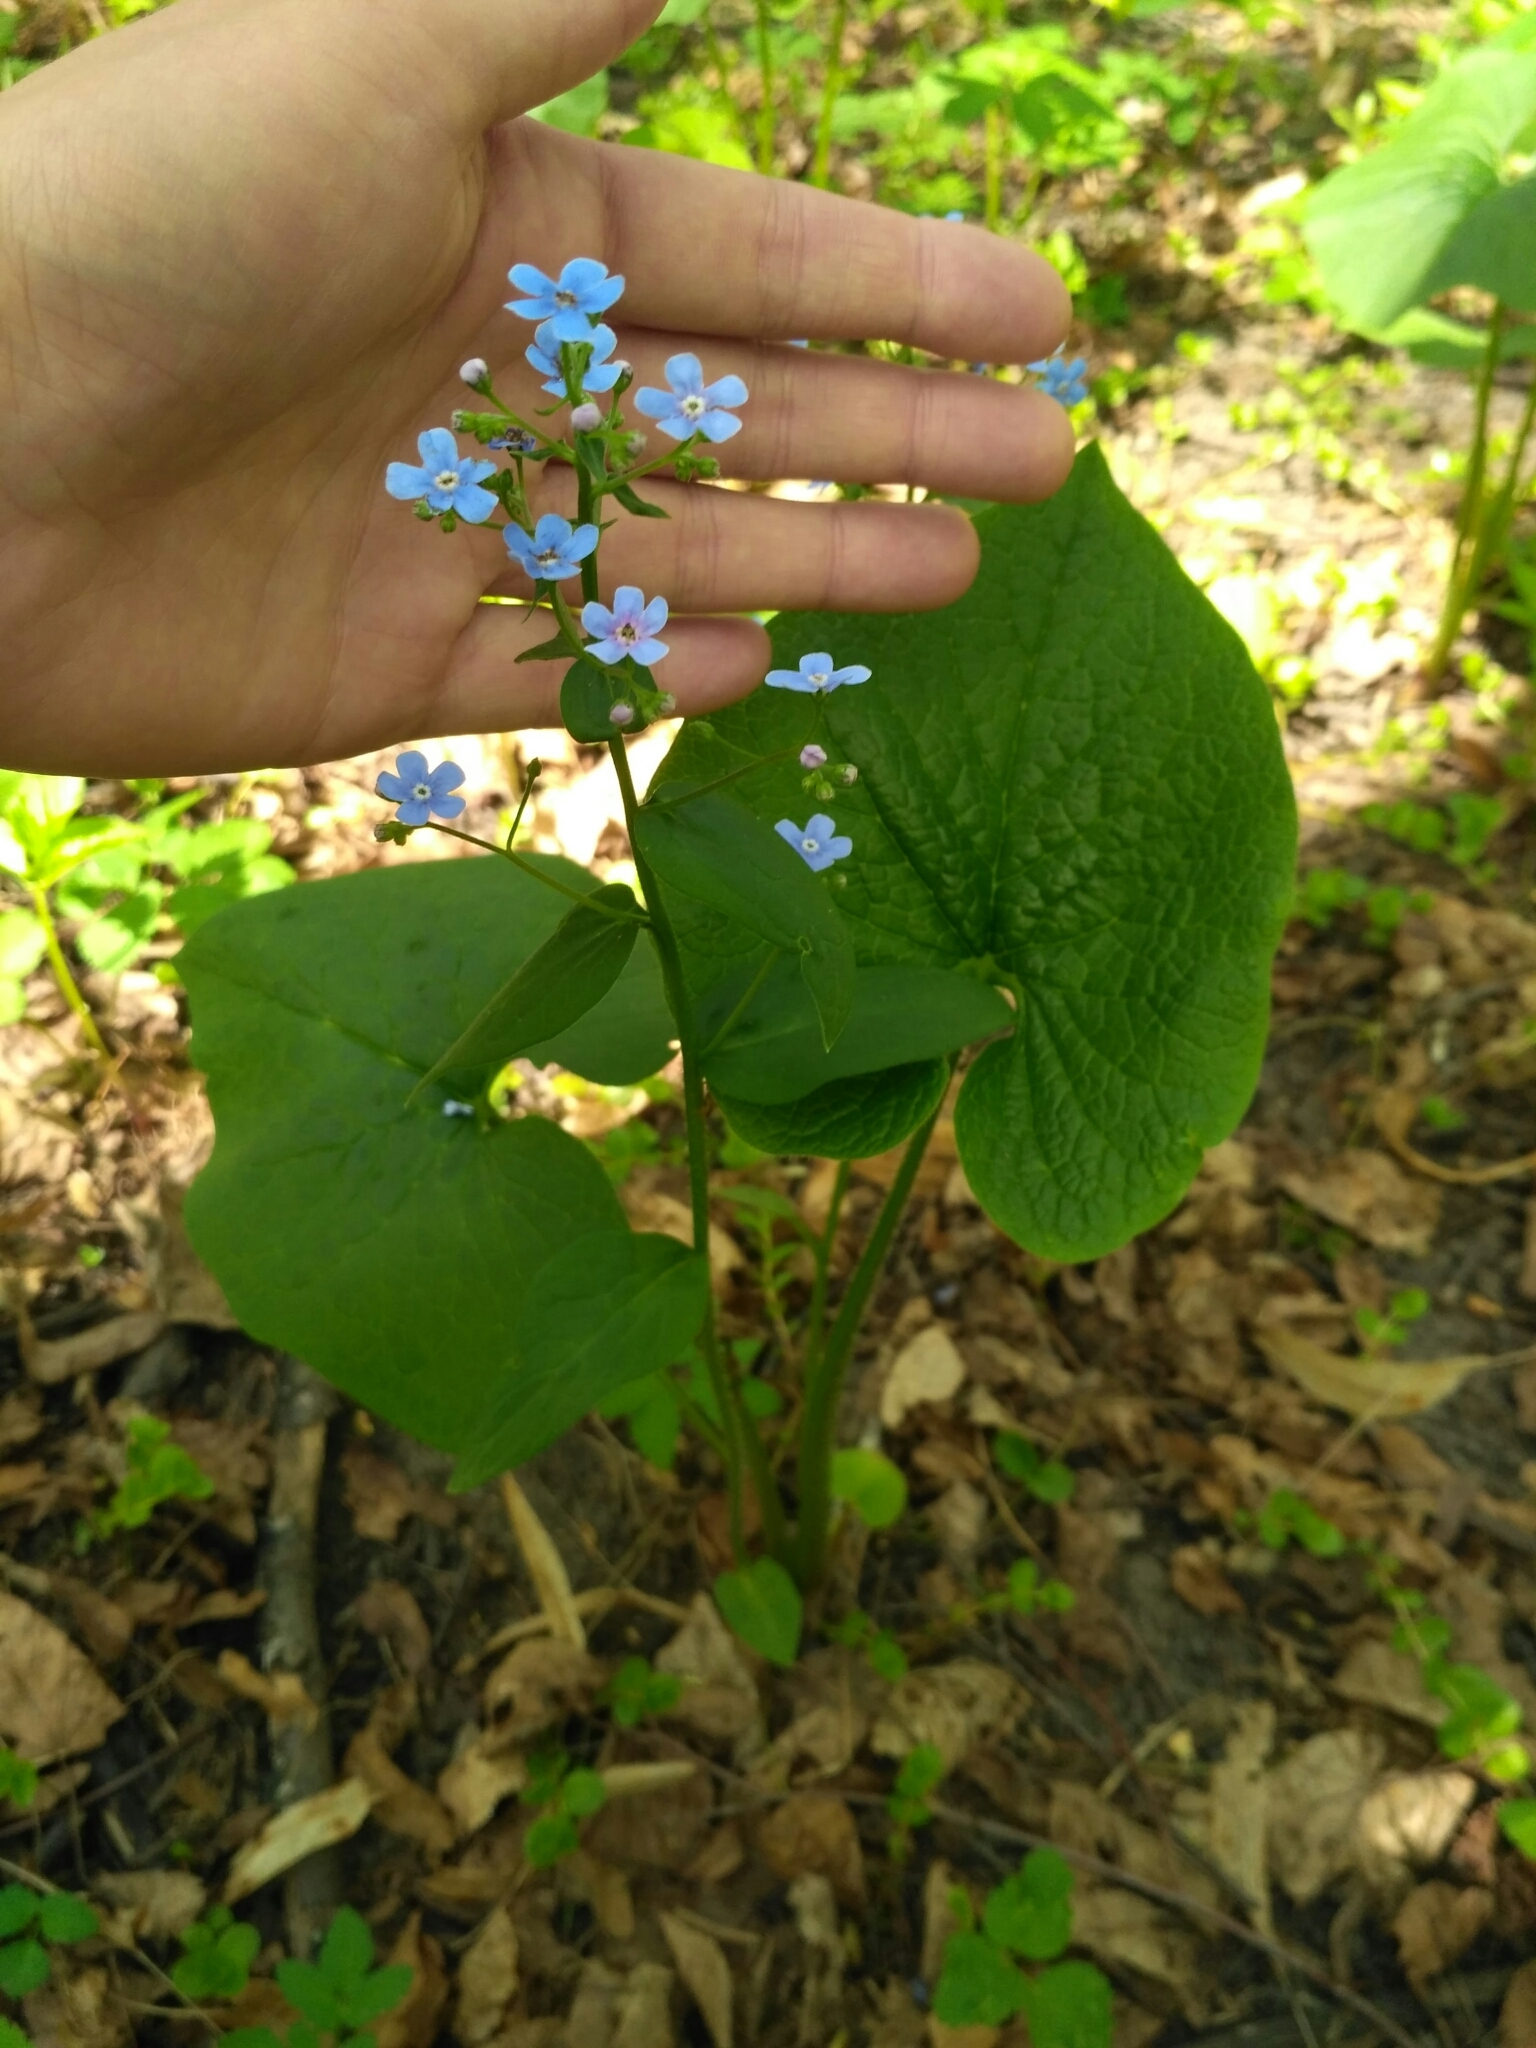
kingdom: Plantae
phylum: Tracheophyta
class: Magnoliopsida
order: Boraginales
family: Boraginaceae
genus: Brunnera
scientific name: Brunnera sibirica
